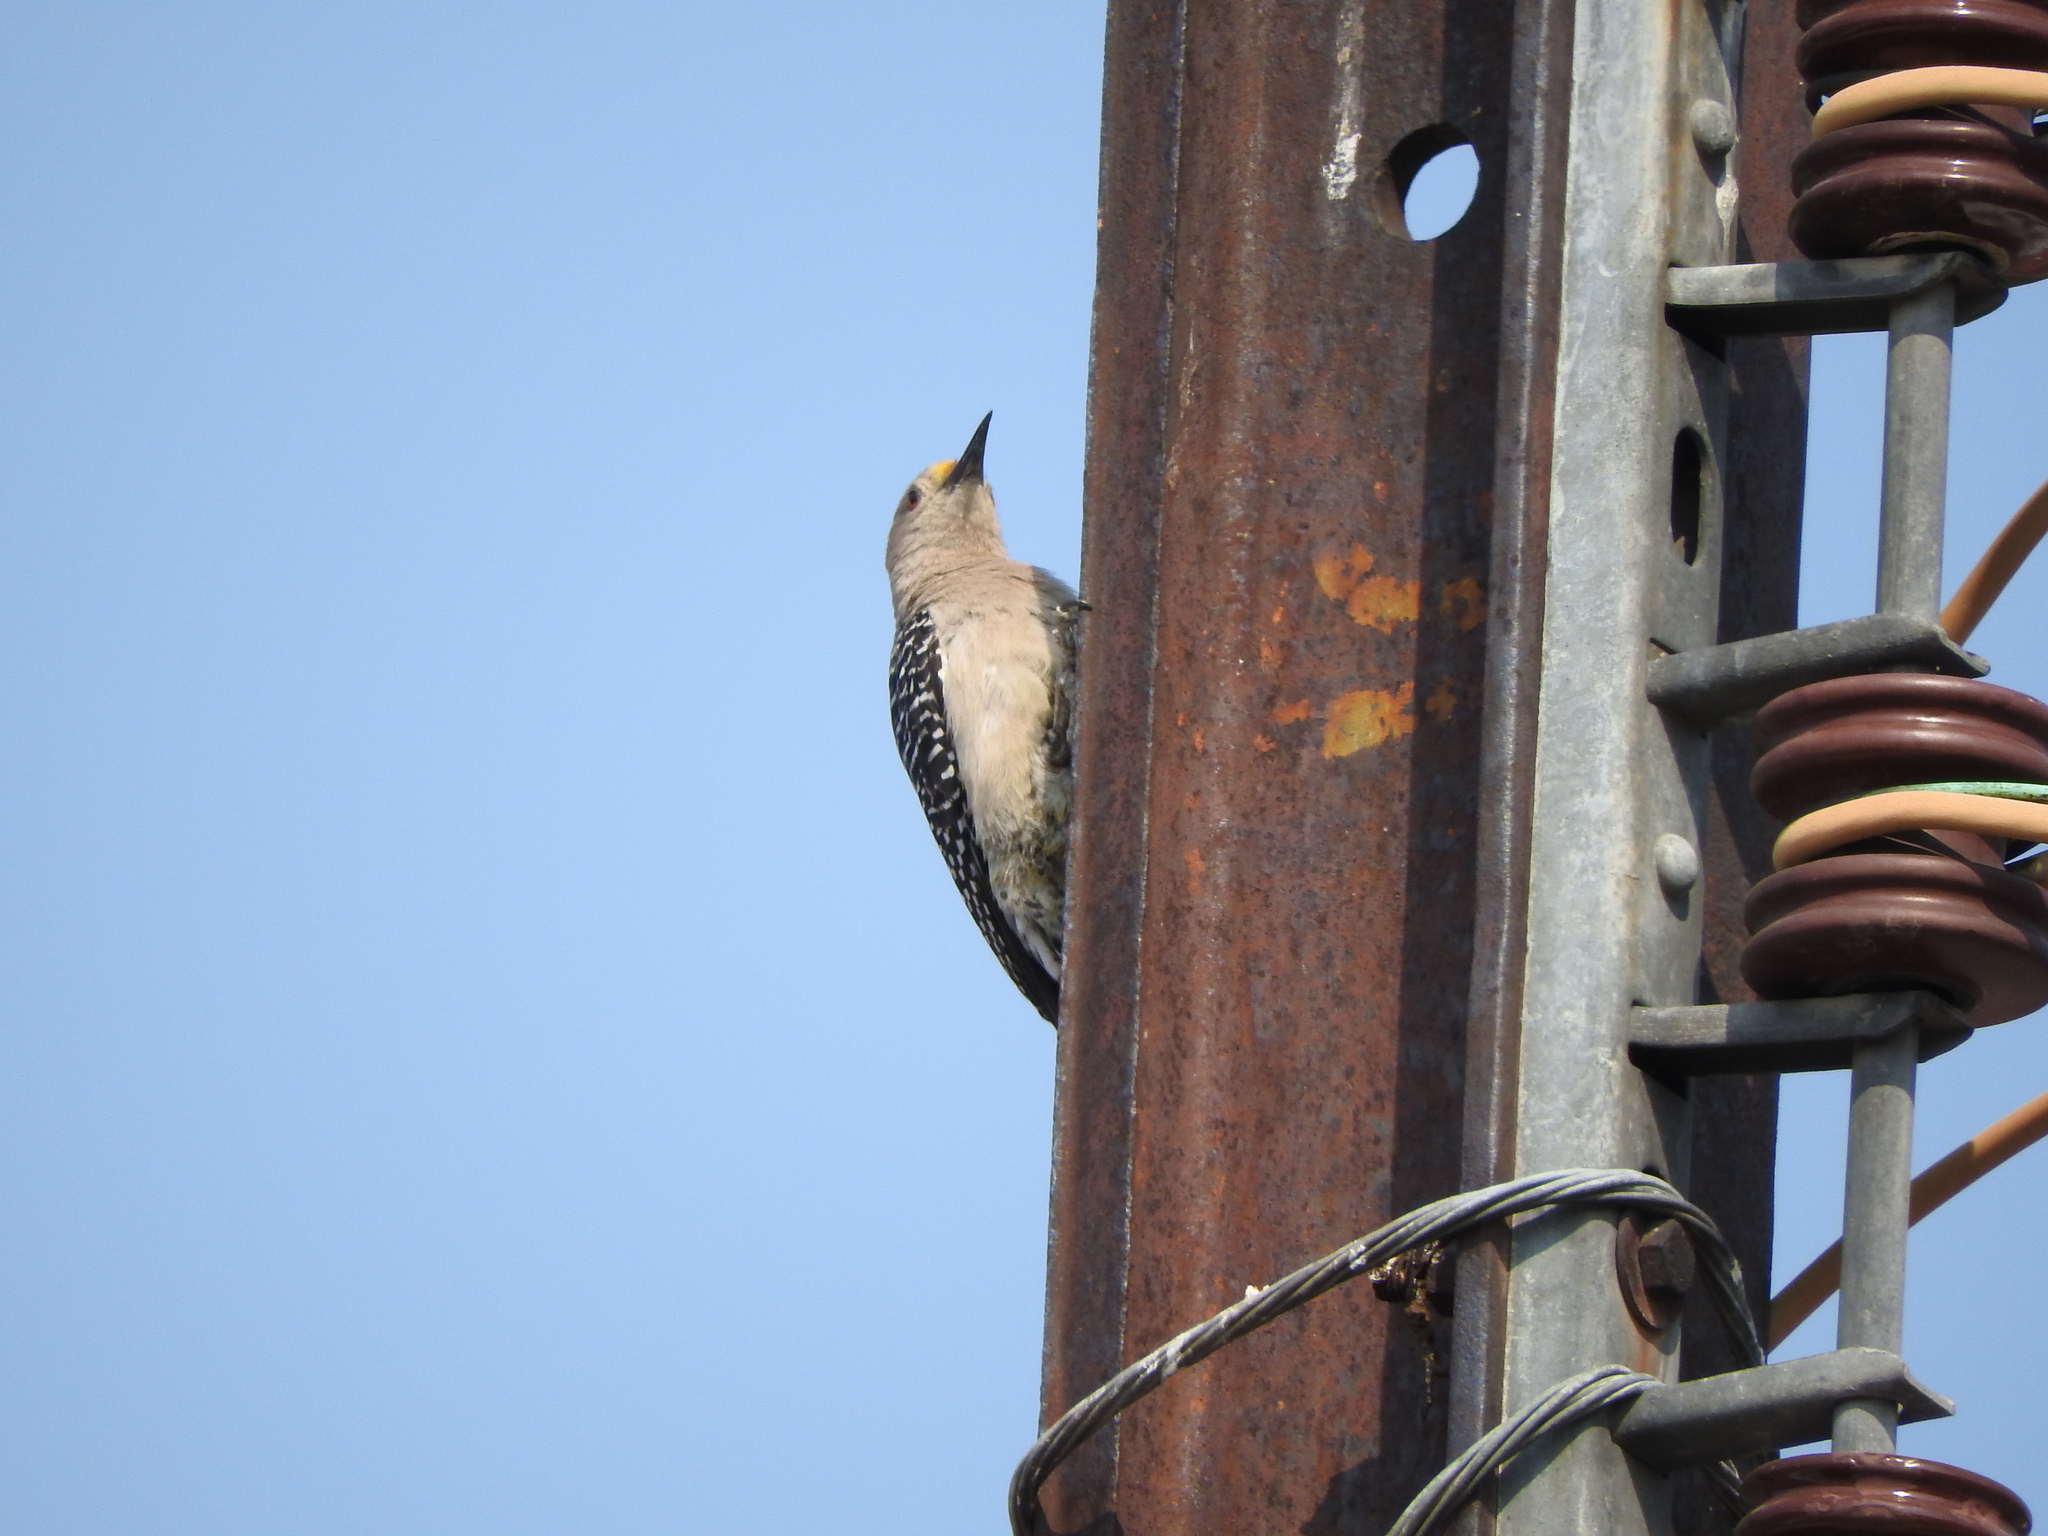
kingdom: Animalia
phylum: Chordata
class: Aves
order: Piciformes
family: Picidae
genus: Melanerpes
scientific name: Melanerpes aurifrons
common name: Golden-fronted woodpecker
